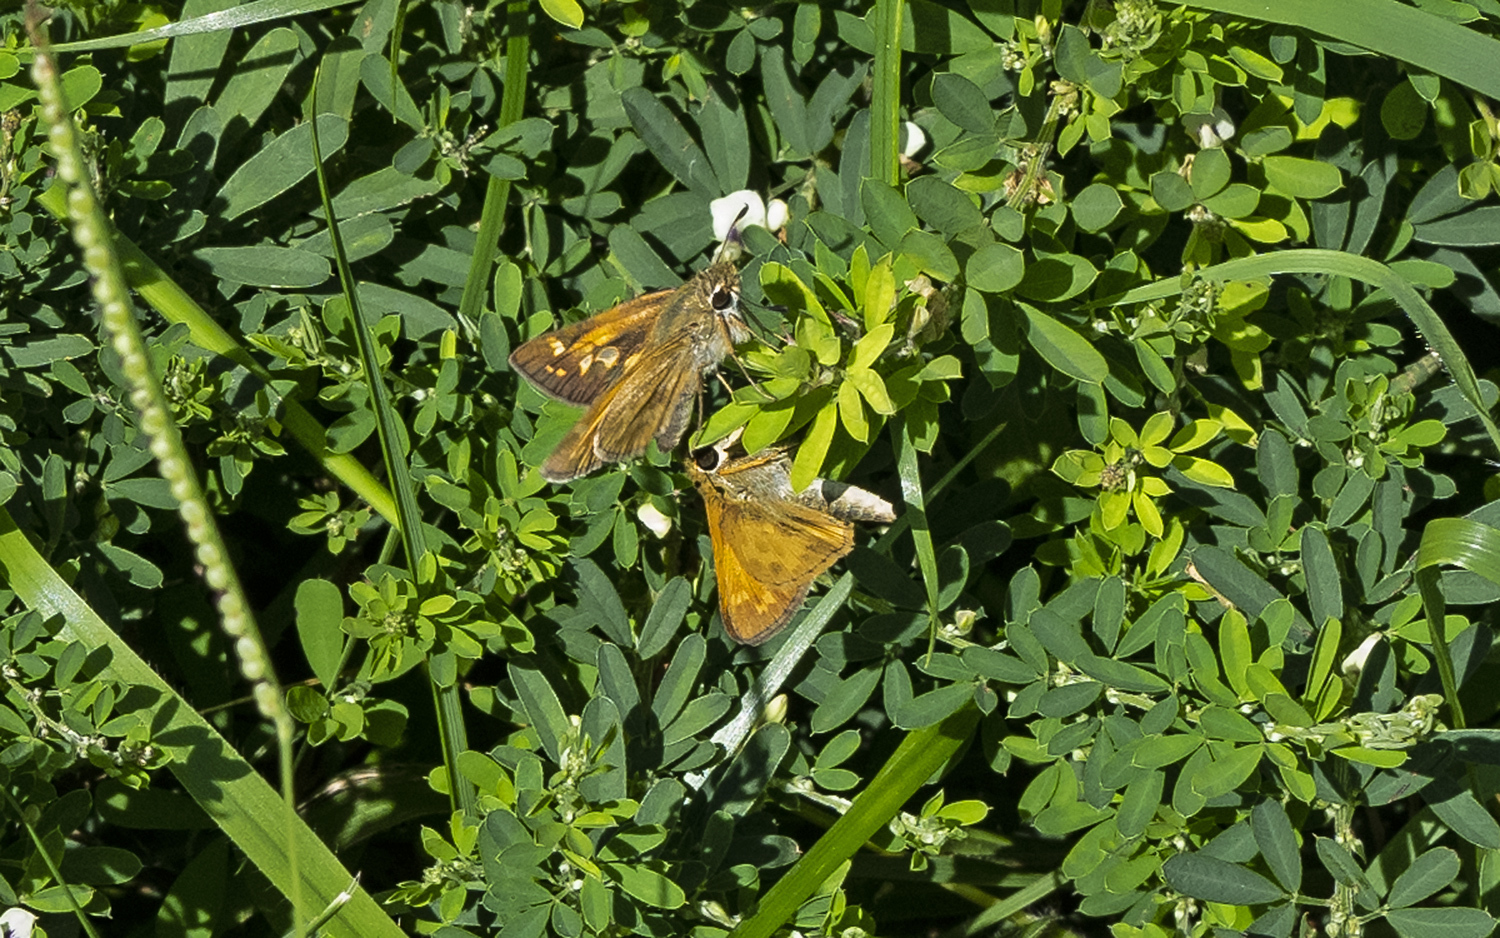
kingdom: Animalia
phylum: Arthropoda
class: Insecta
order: Lepidoptera
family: Hesperiidae
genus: Atalopedes
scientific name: Atalopedes
